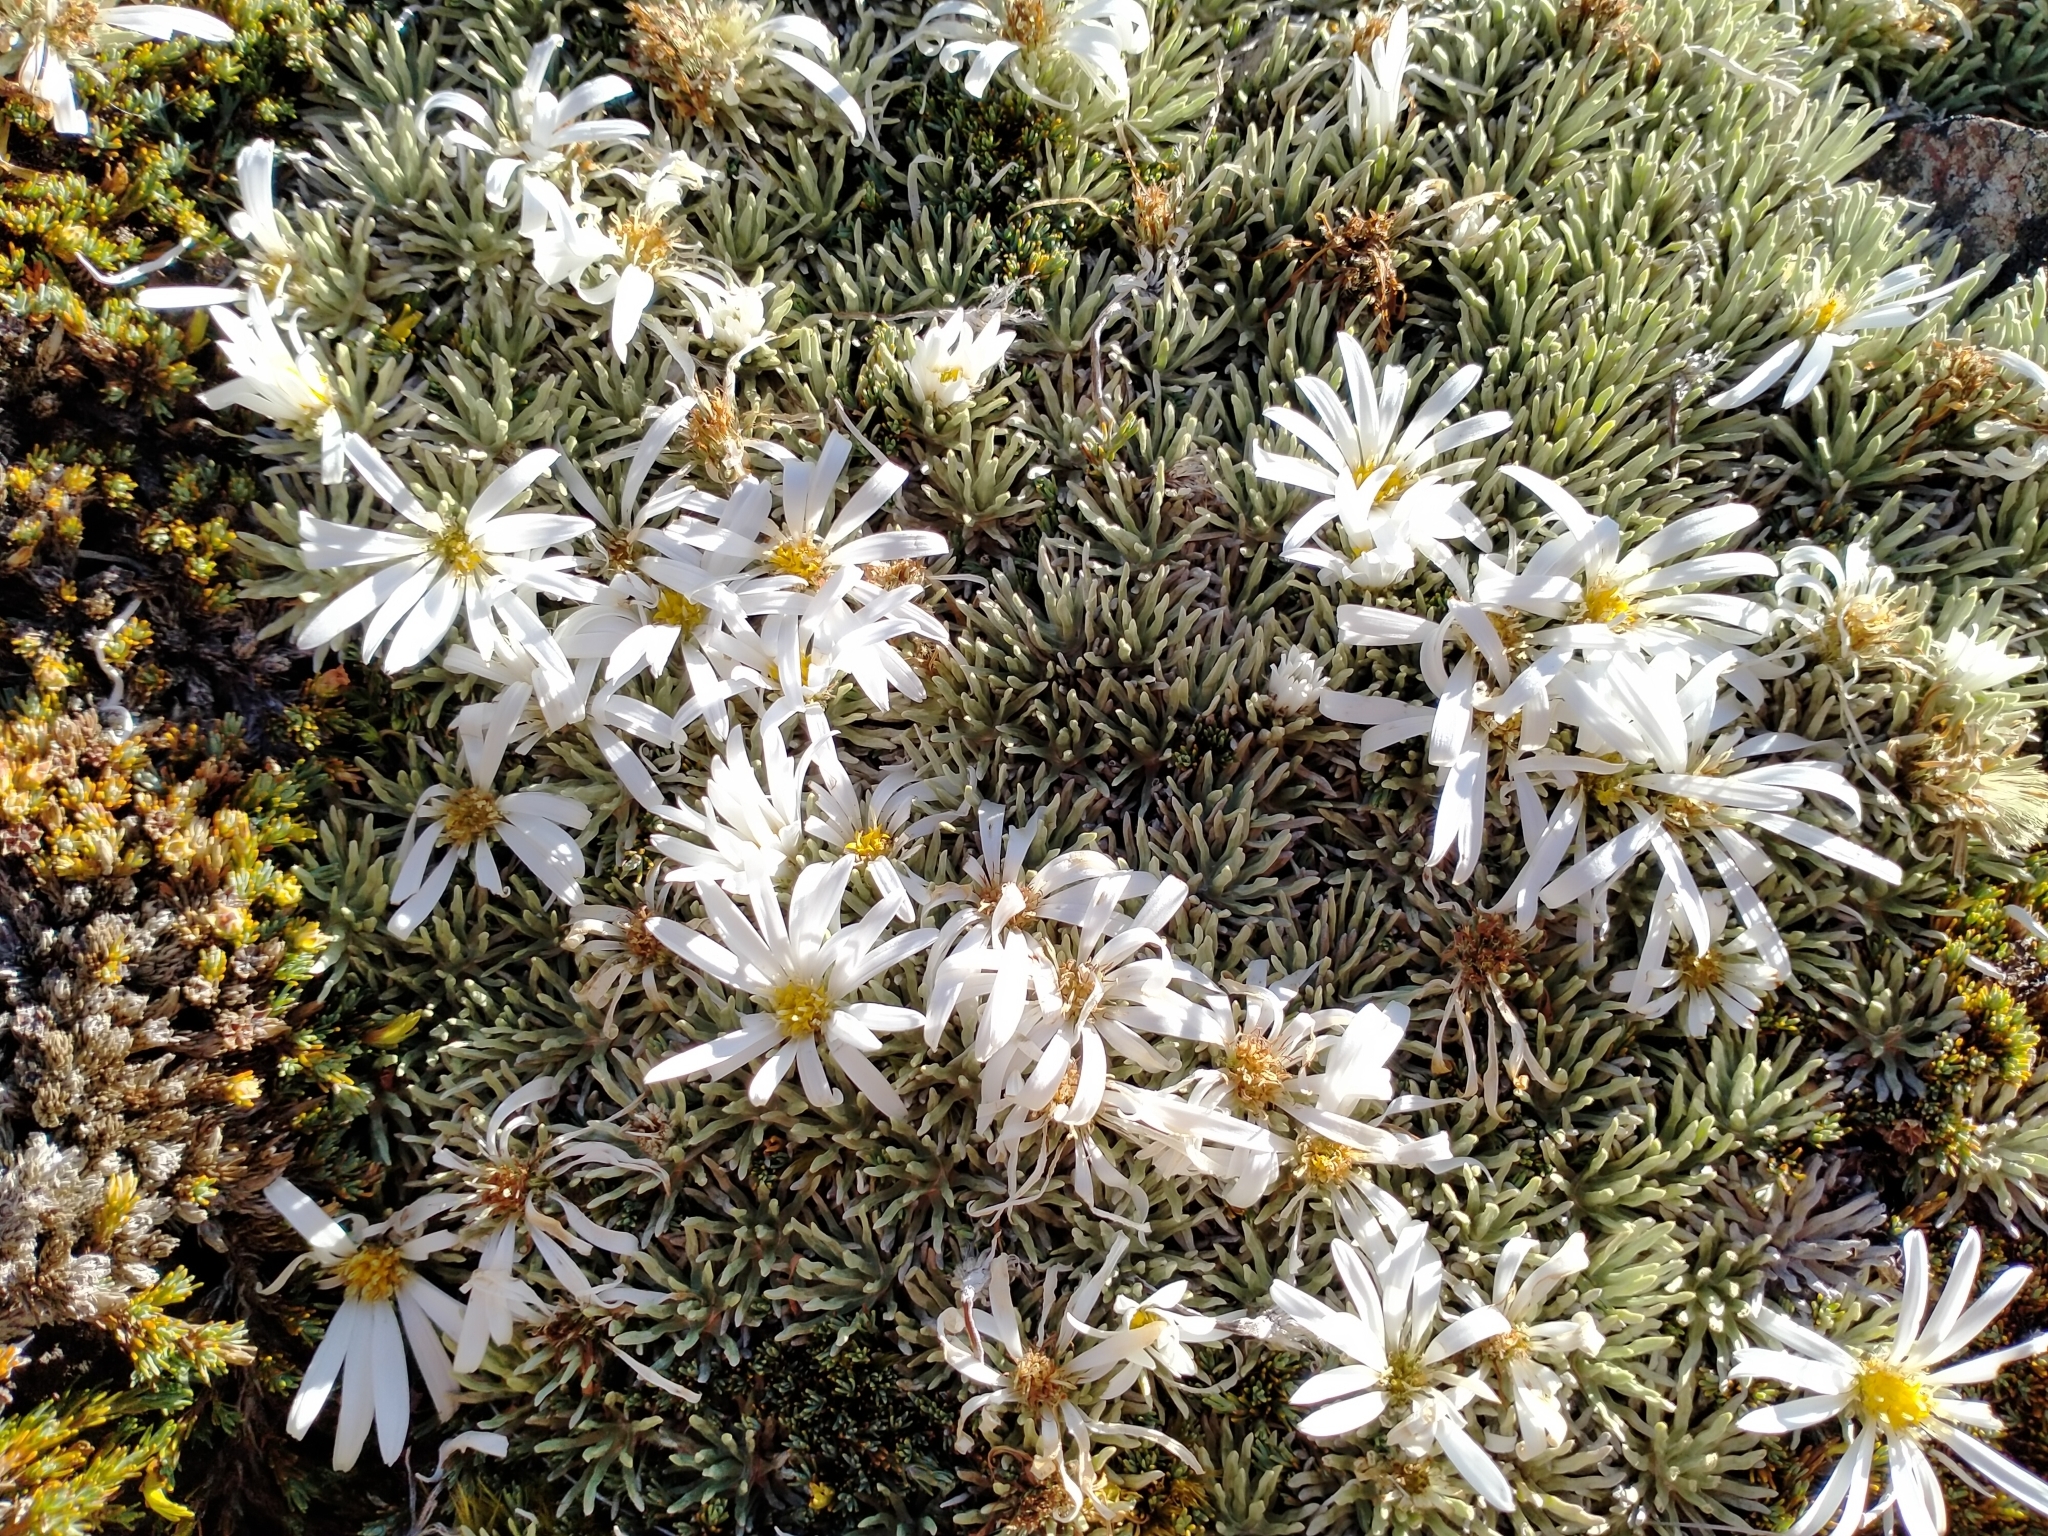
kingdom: Plantae
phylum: Tracheophyta
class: Magnoliopsida
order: Asterales
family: Asteraceae
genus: Celmisia
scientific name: Celmisia sessiliflora
